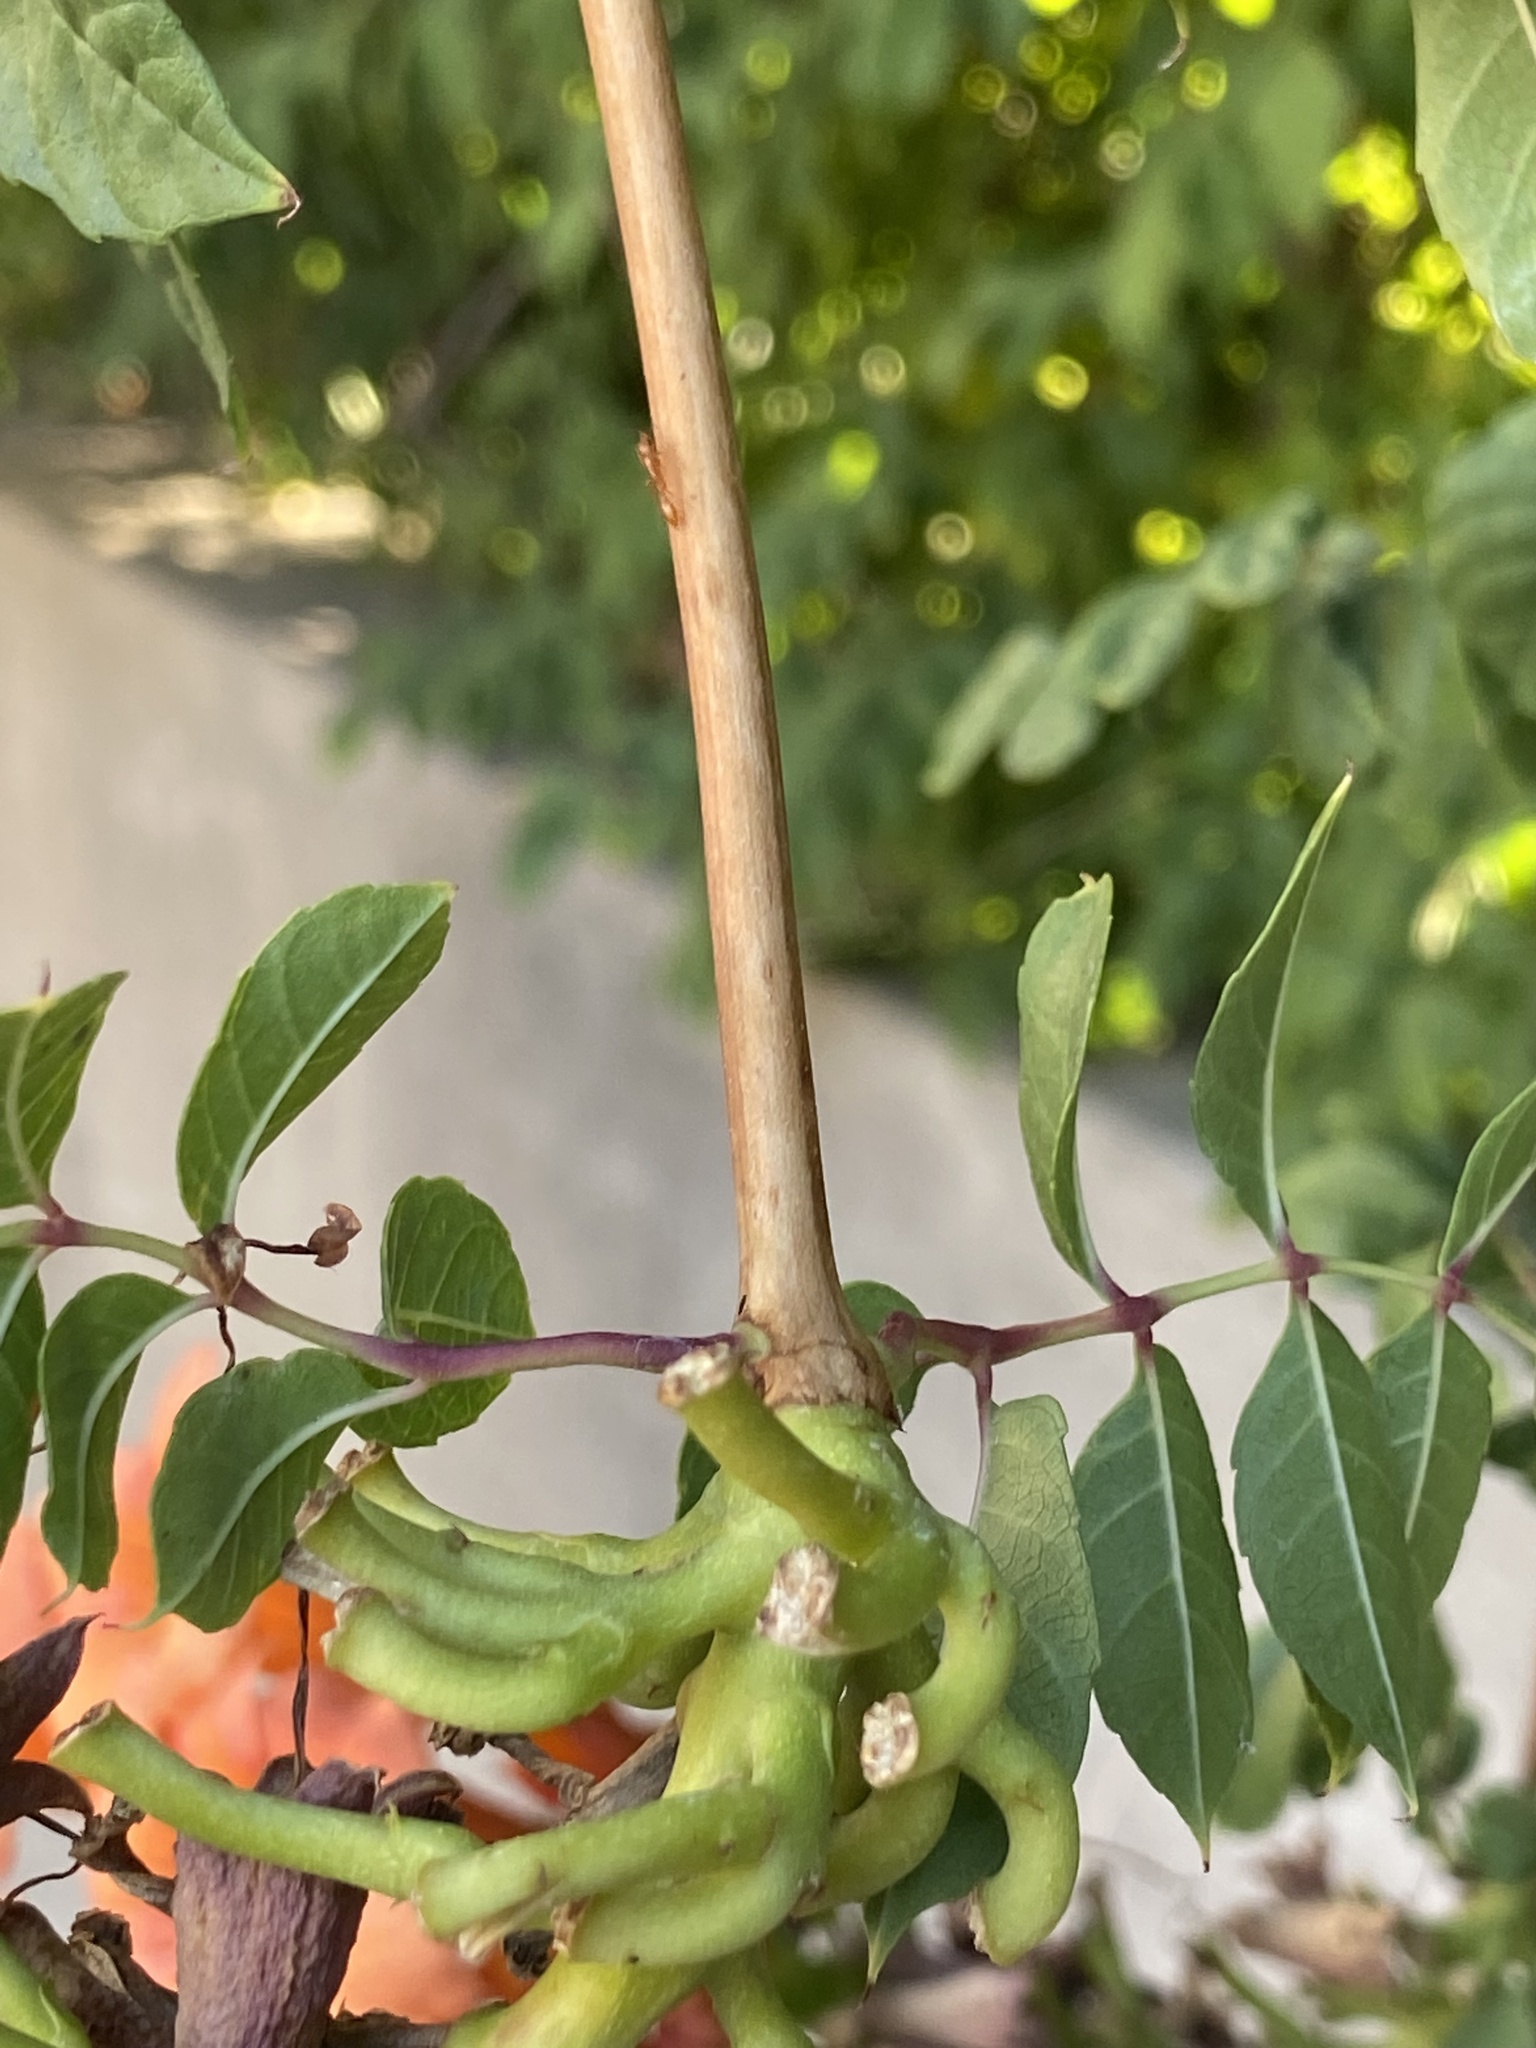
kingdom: Animalia
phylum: Arthropoda
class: Insecta
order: Hymenoptera
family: Formicidae
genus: Pseudomyrmex
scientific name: Pseudomyrmex pallidus
